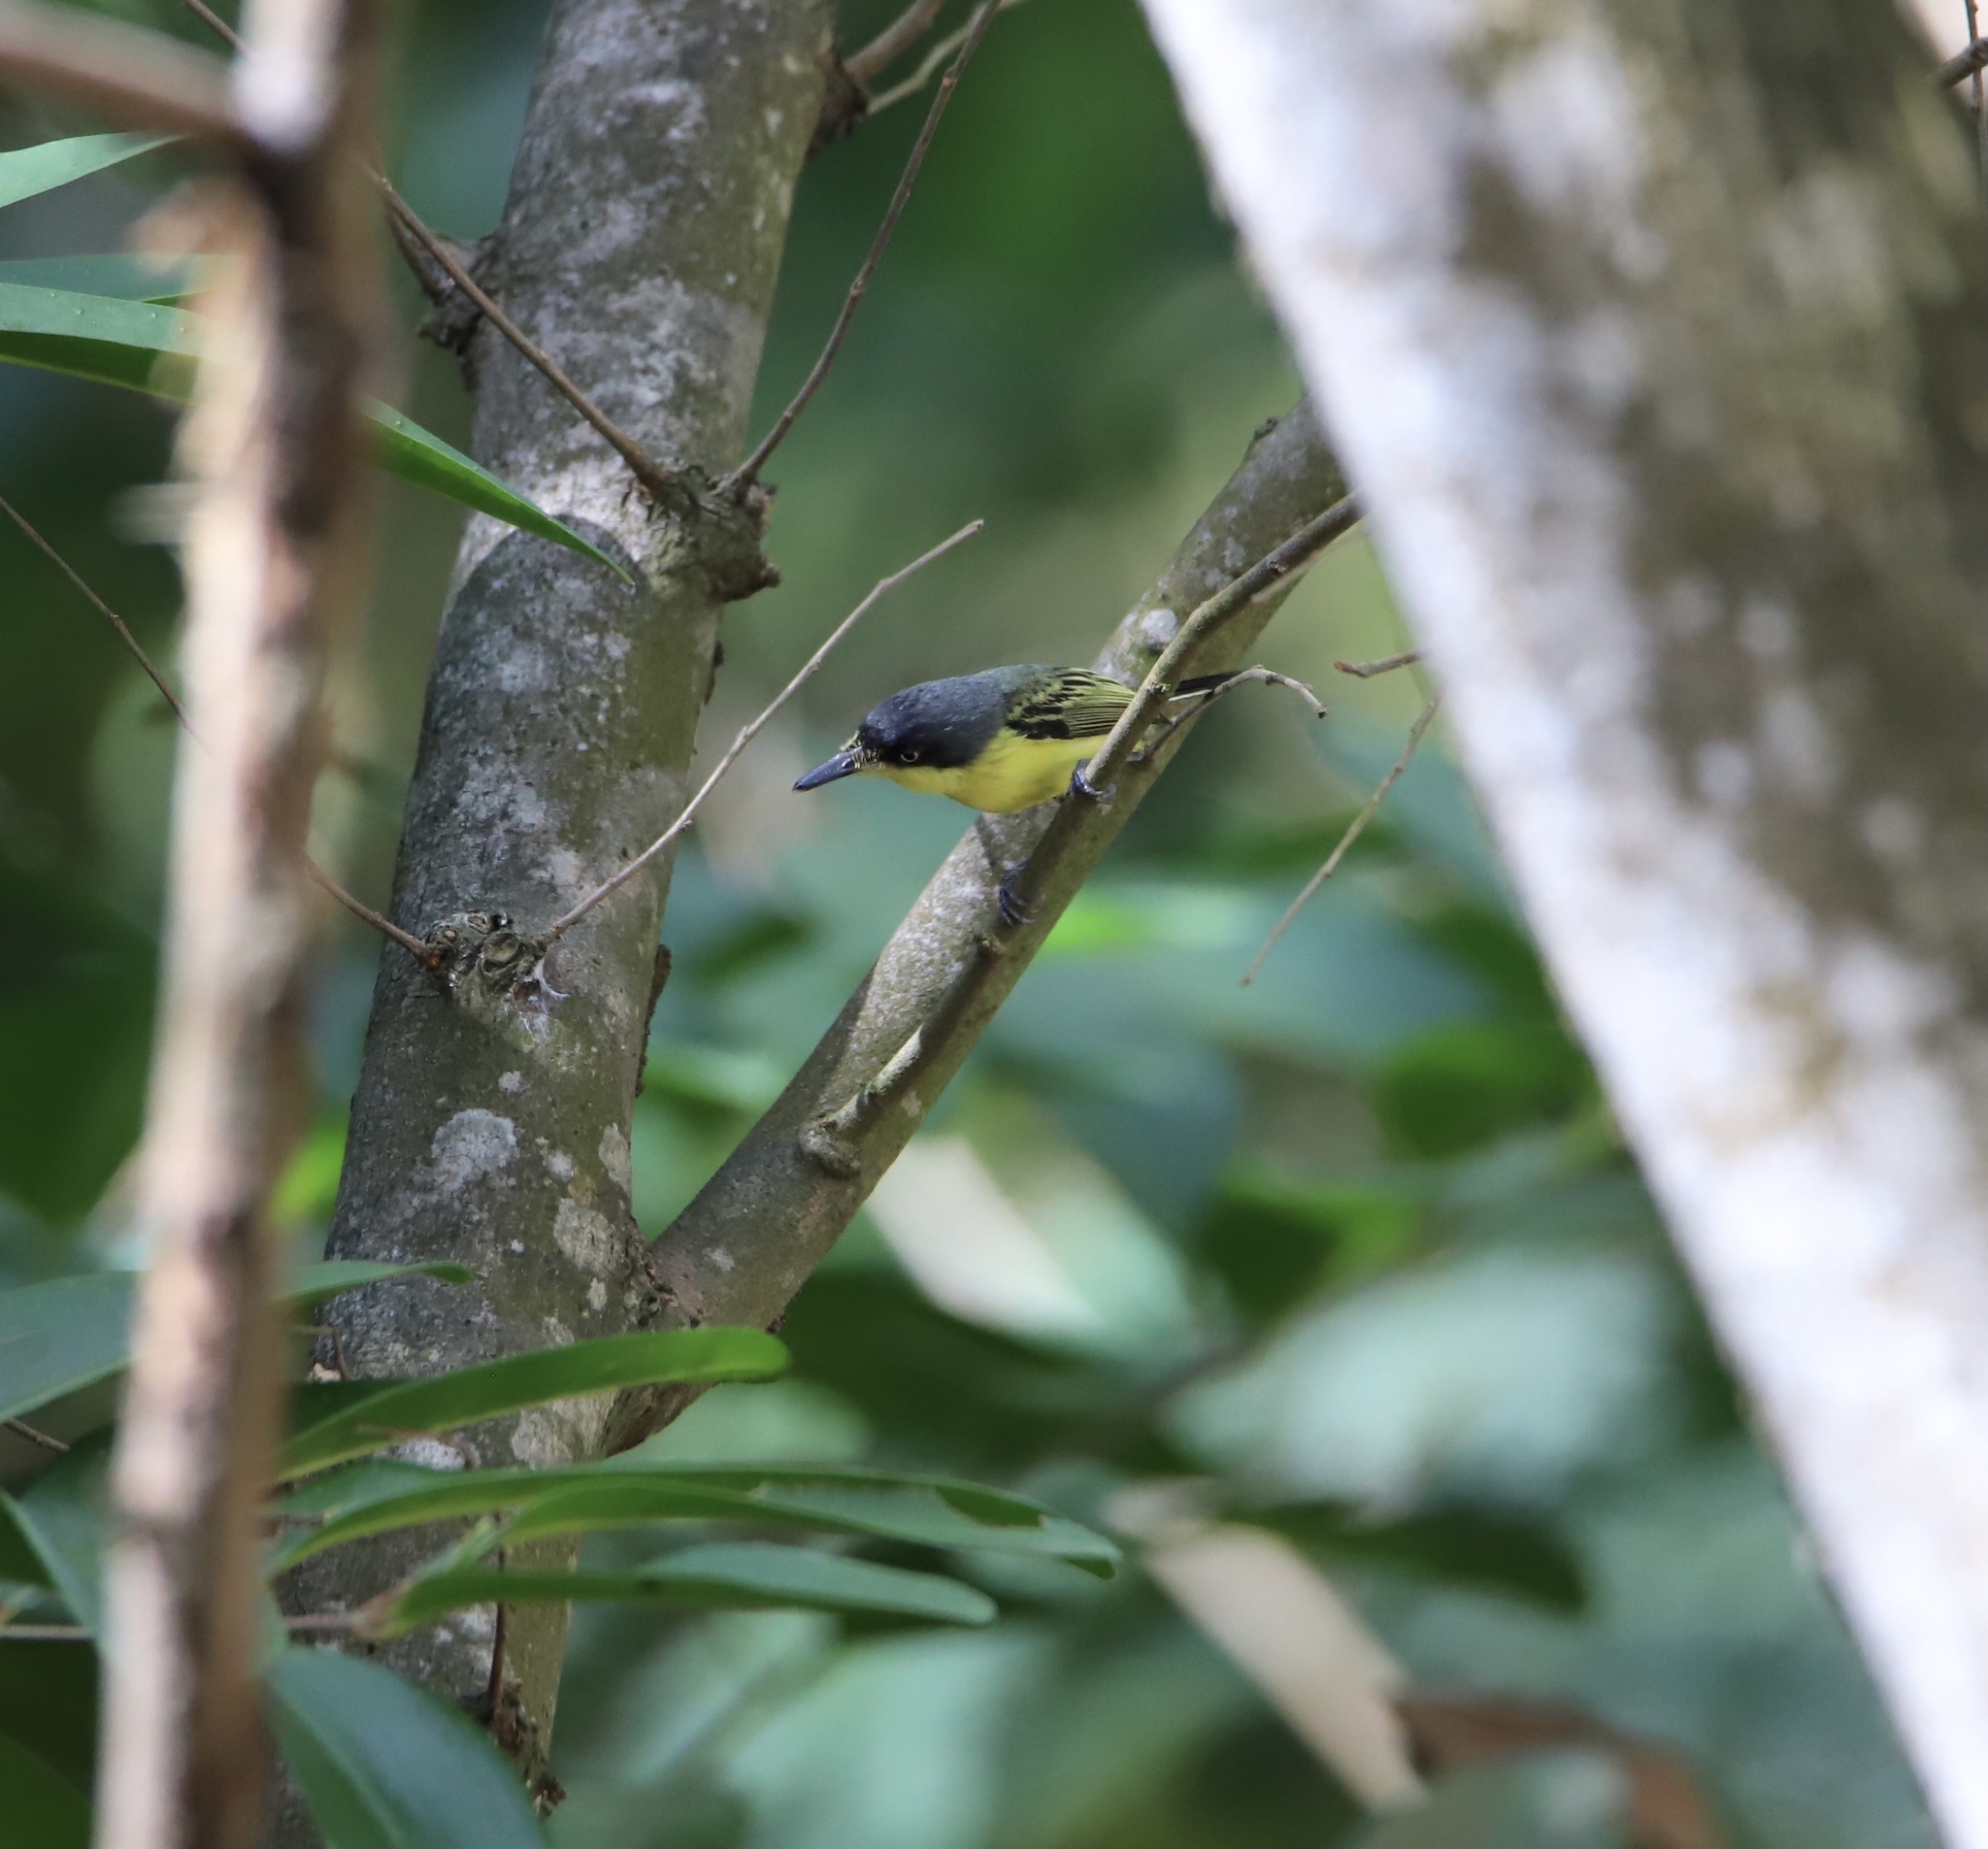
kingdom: Animalia
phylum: Chordata
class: Aves
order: Passeriformes
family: Tyrannidae
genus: Todirostrum
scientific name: Todirostrum cinereum
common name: Common tody-flycatcher
